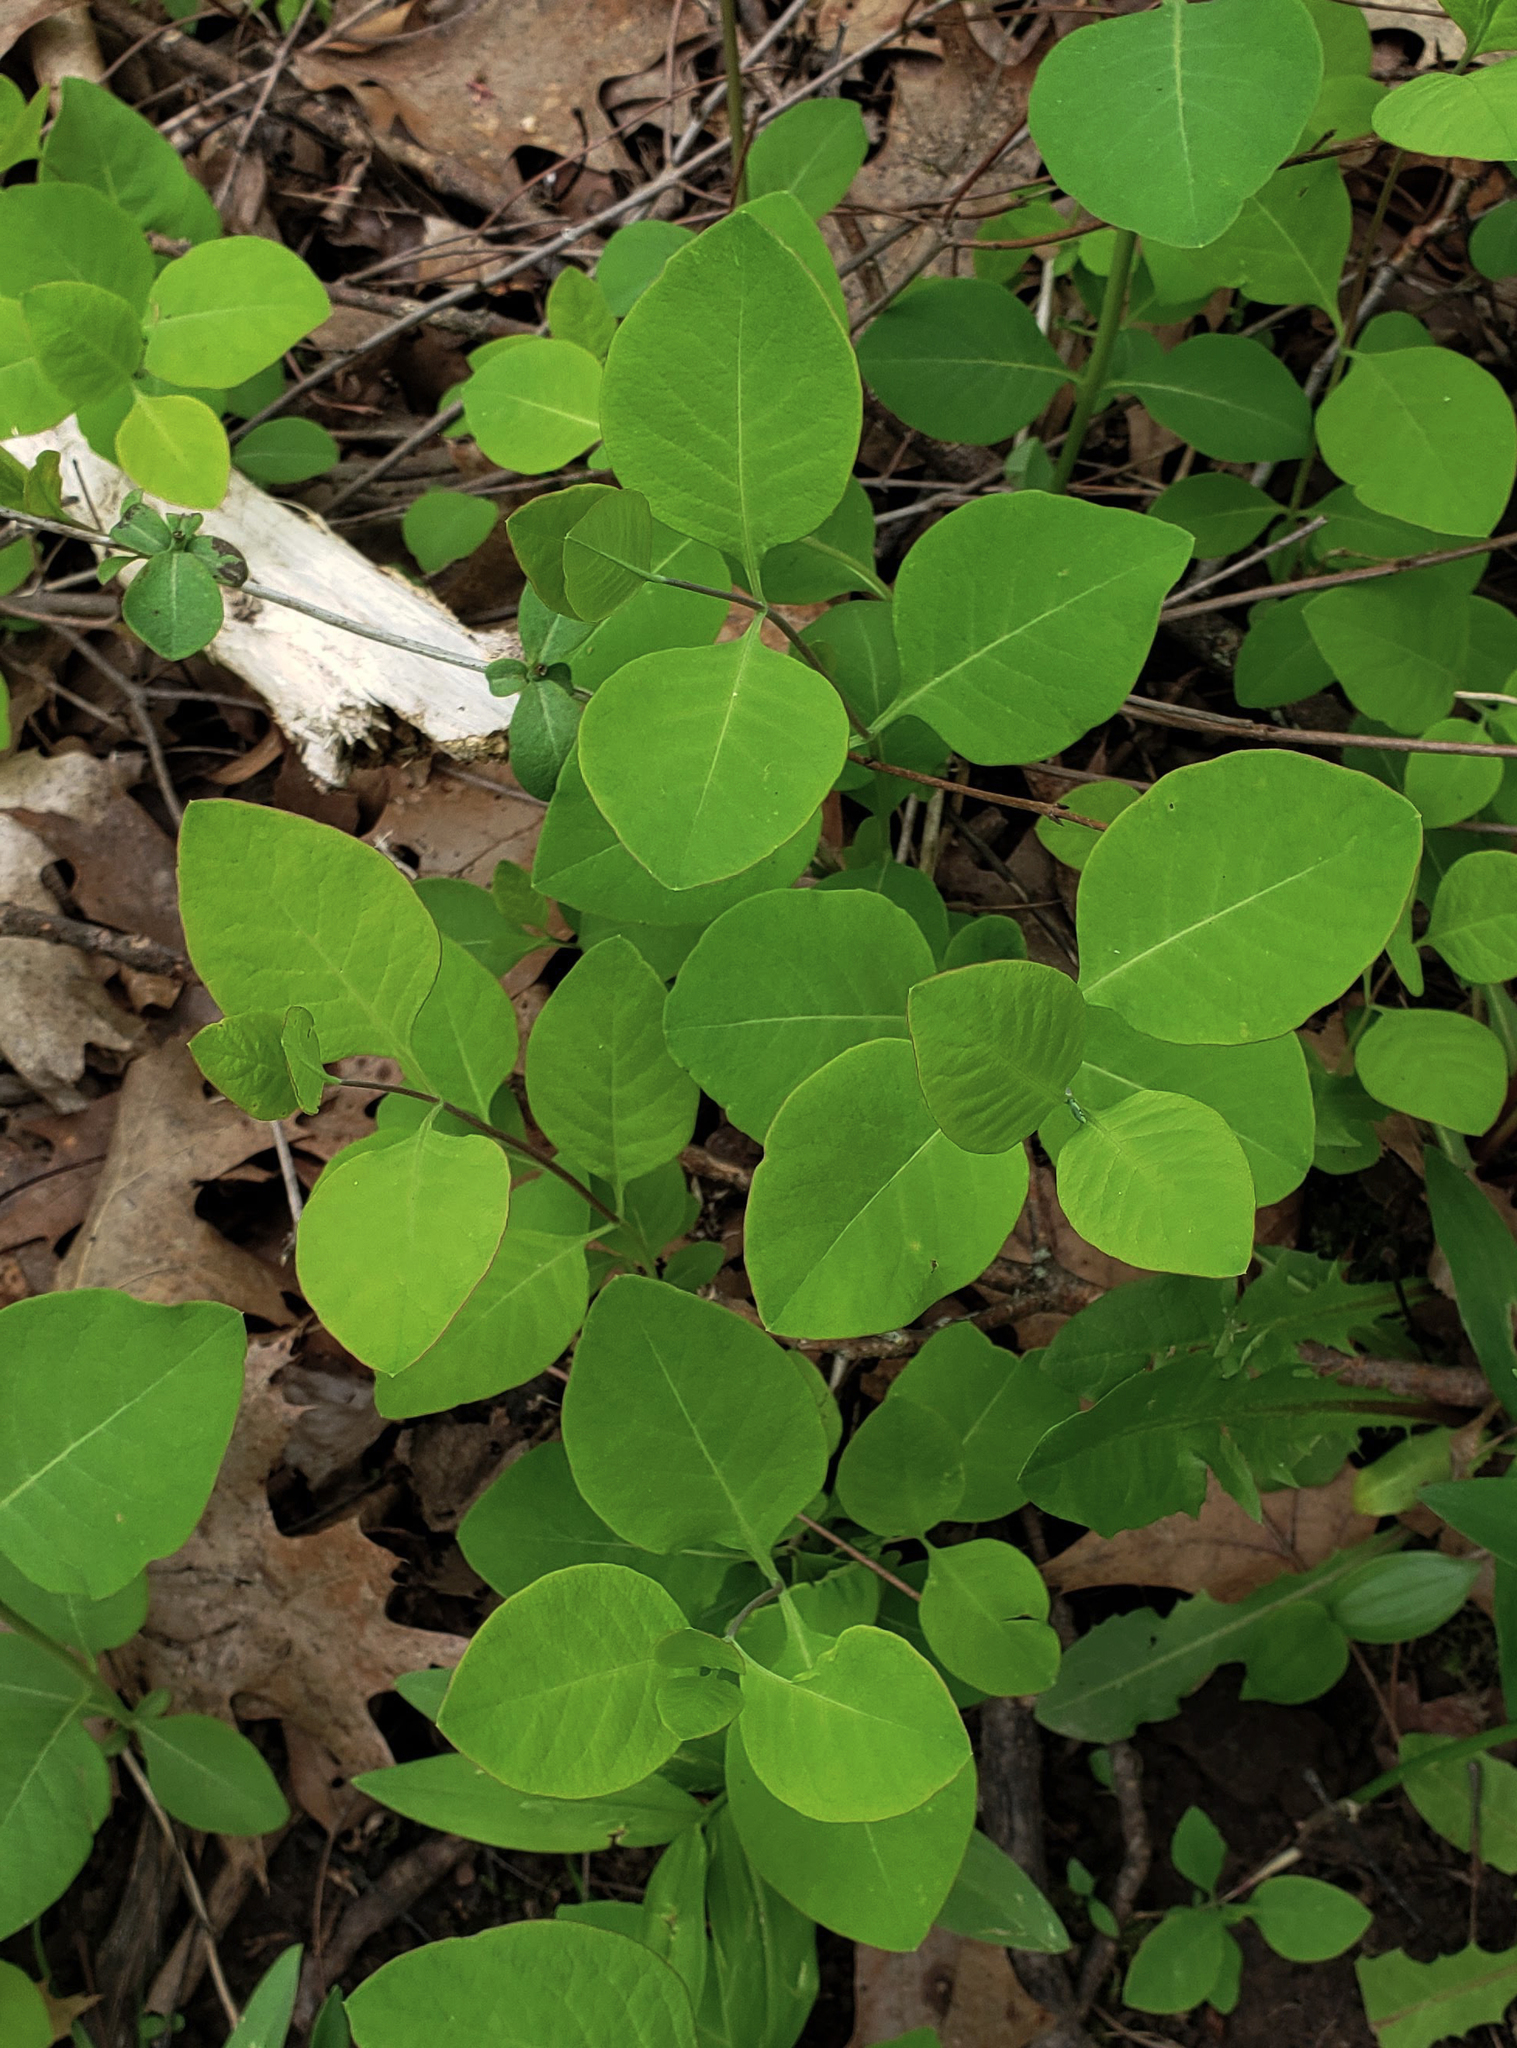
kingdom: Plantae
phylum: Tracheophyta
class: Magnoliopsida
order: Dipsacales
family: Caprifoliaceae
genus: Lonicera
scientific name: Lonicera reticulata
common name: Grape honeysuckle
